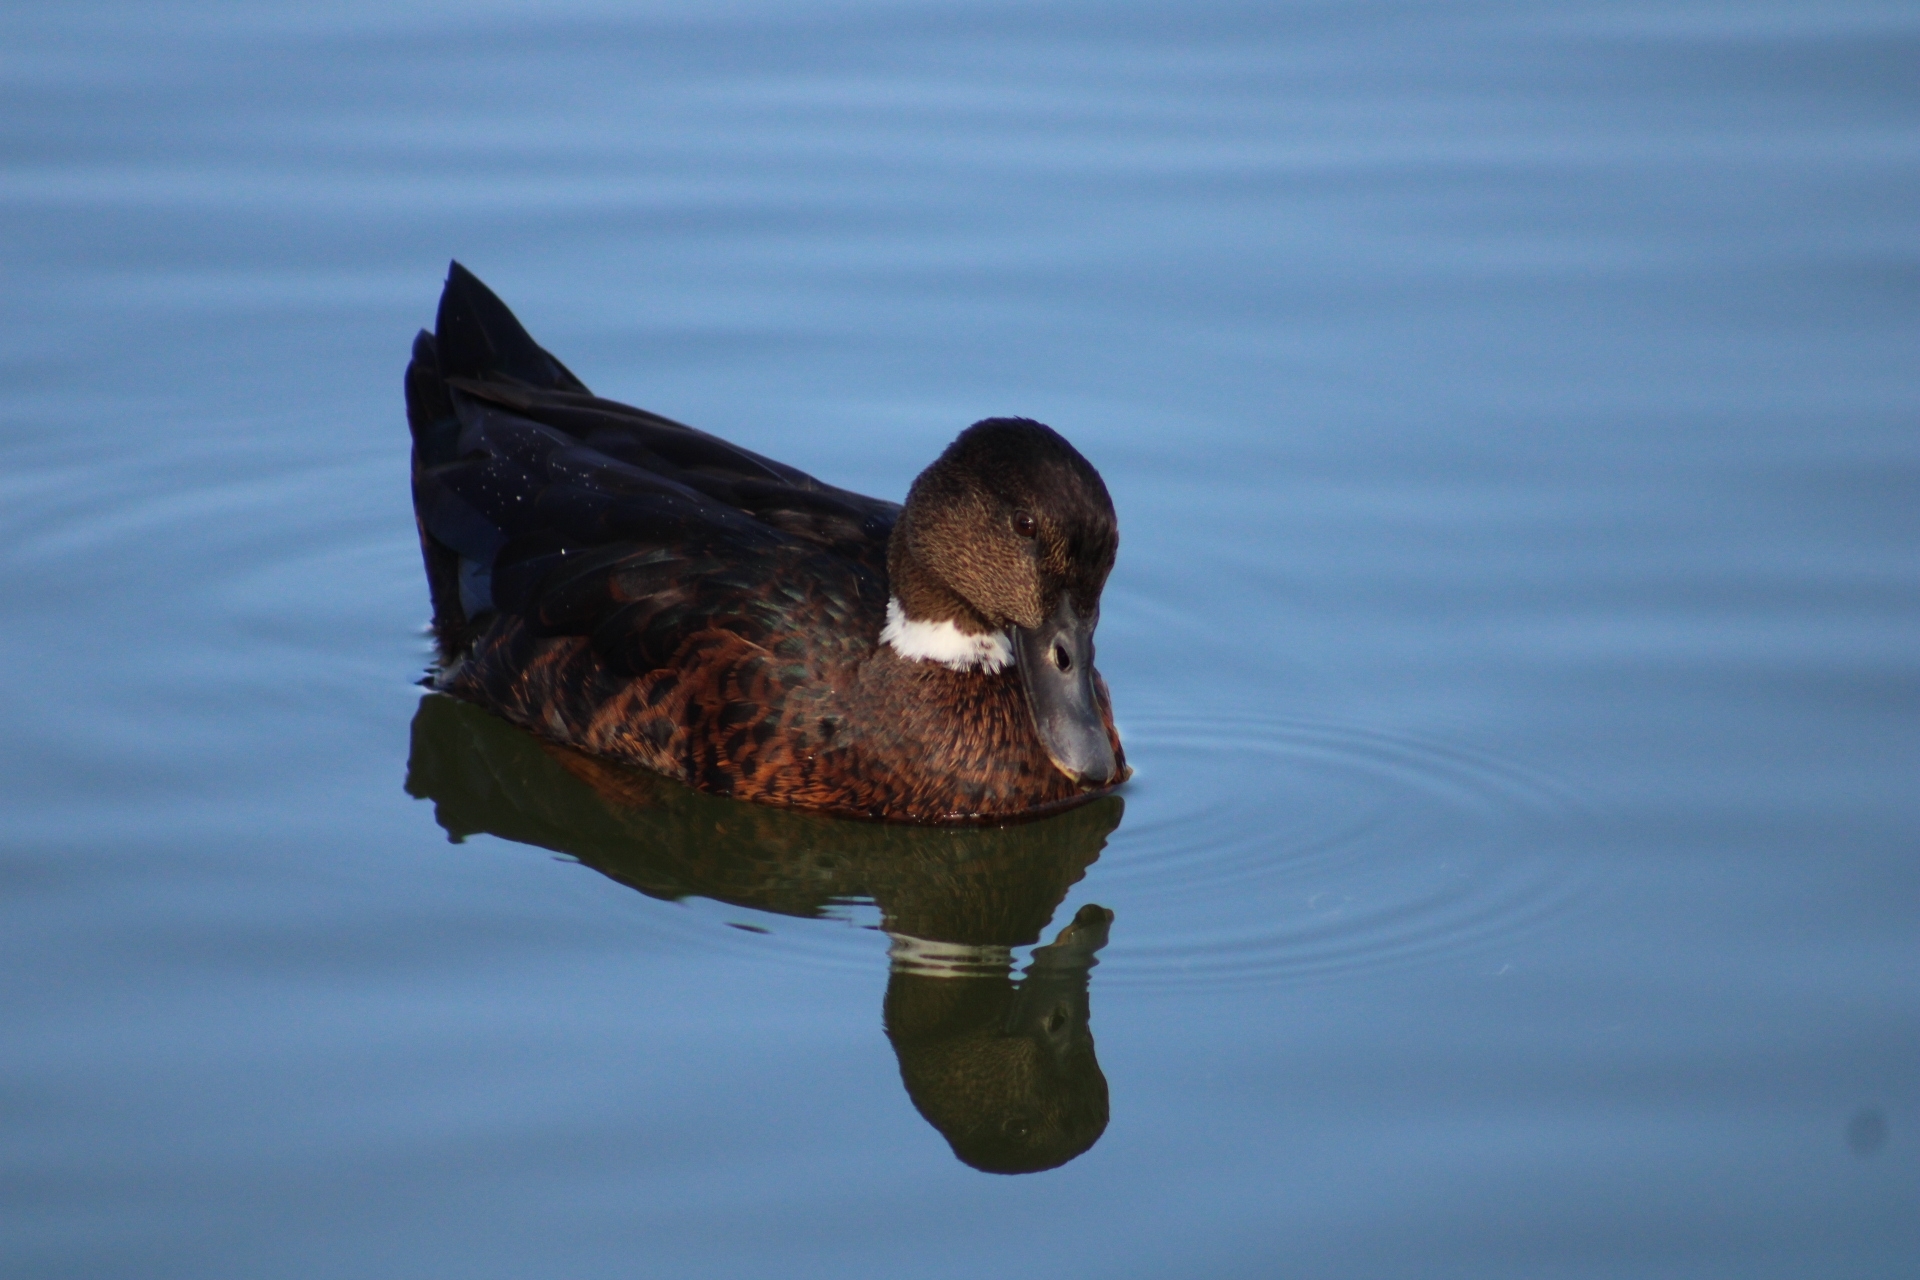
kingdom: Animalia
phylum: Chordata
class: Aves
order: Anseriformes
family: Anatidae
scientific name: Anatidae
